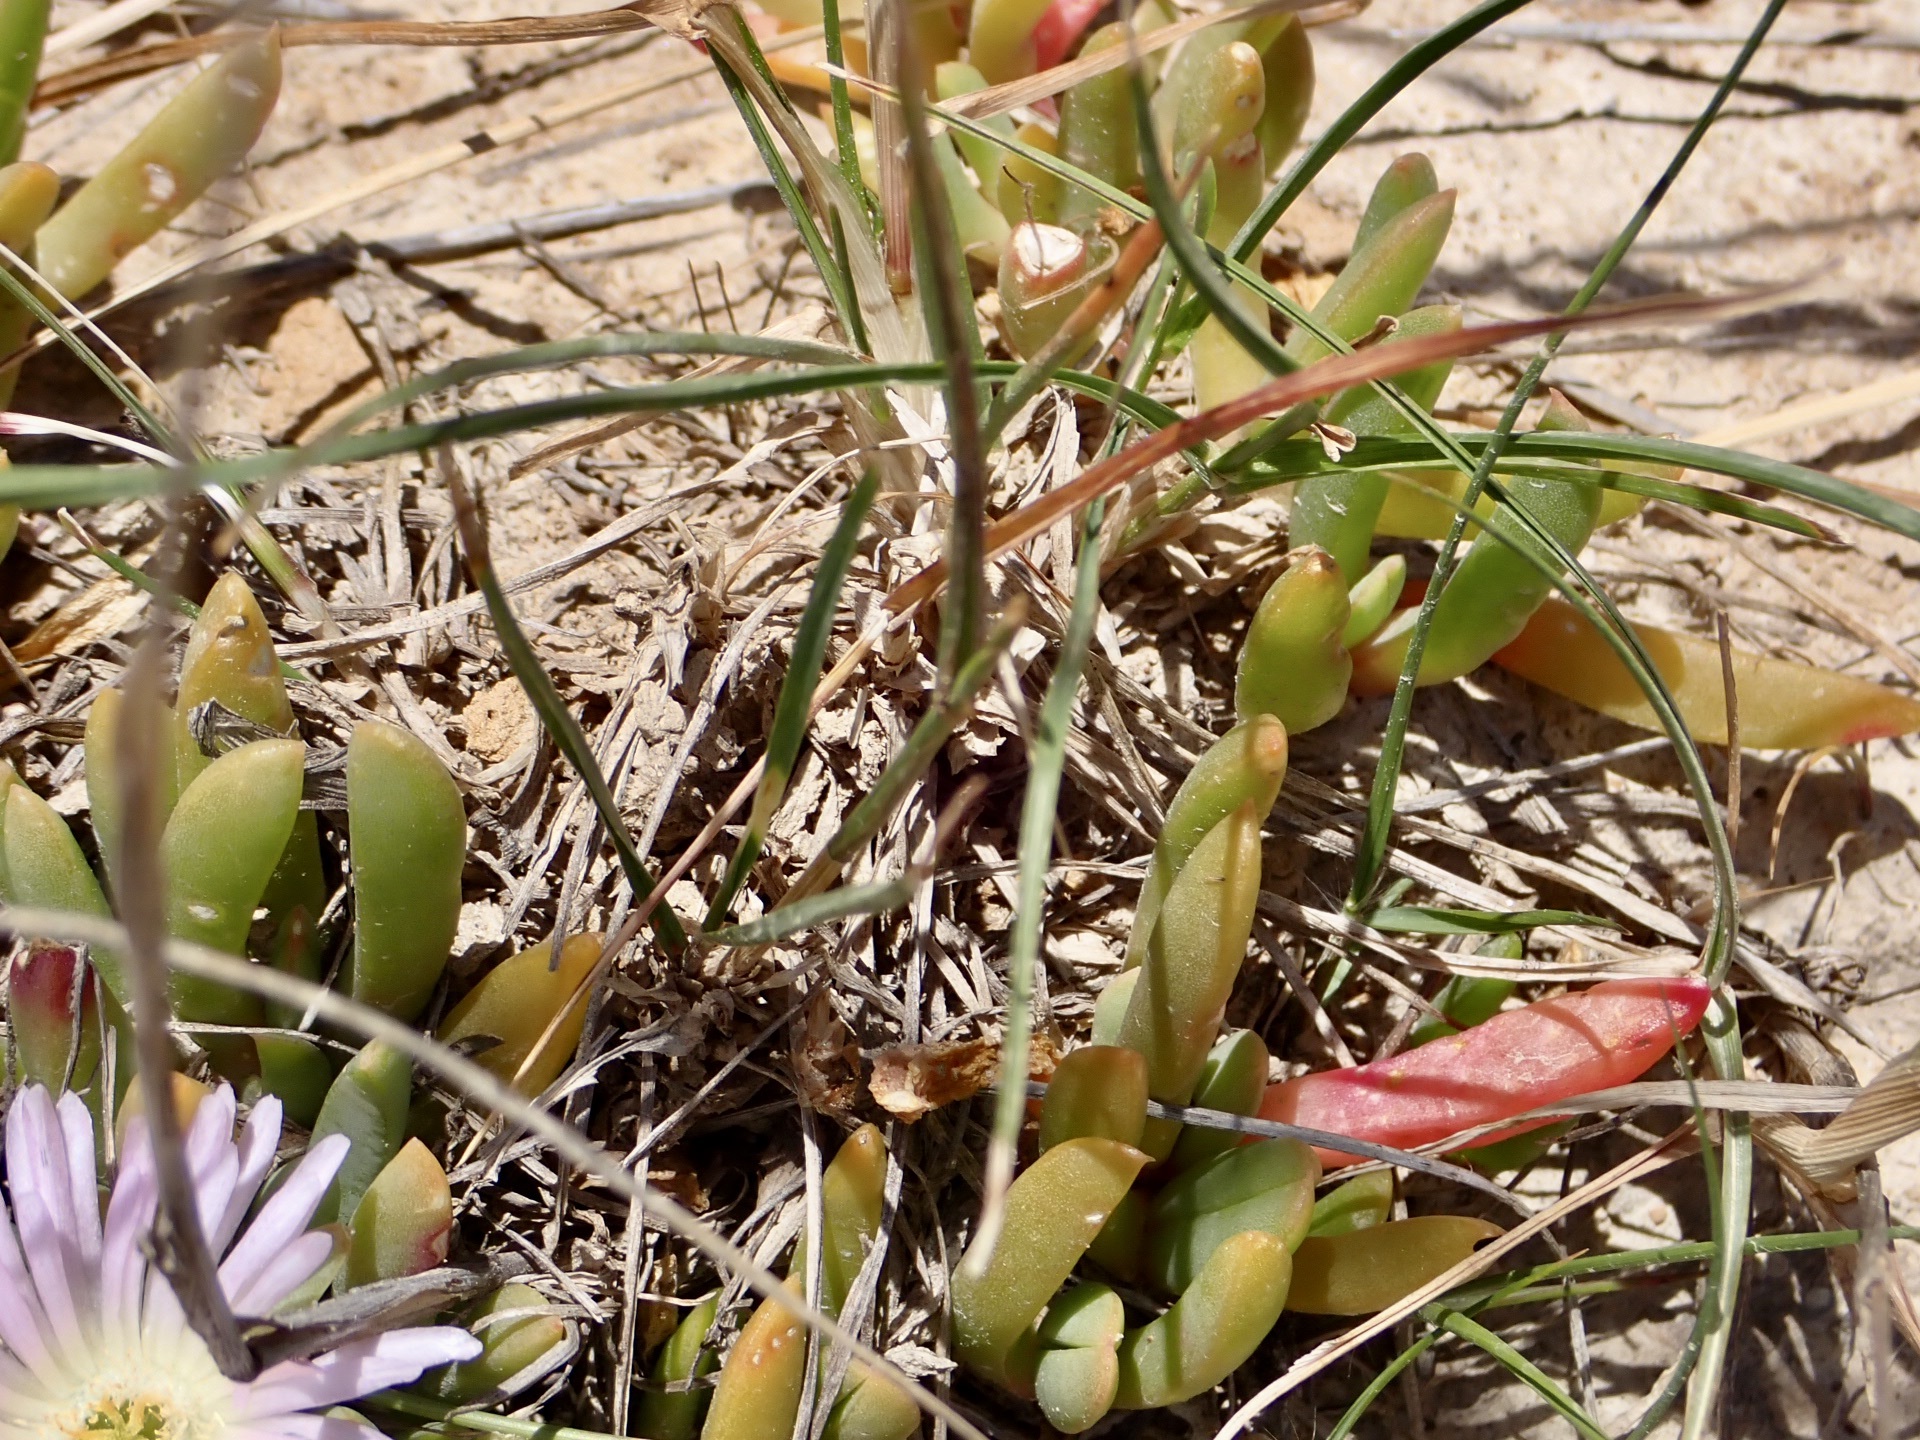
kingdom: Plantae
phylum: Tracheophyta
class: Magnoliopsida
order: Caryophyllales
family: Aizoaceae
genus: Disphyma
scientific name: Disphyma australe
